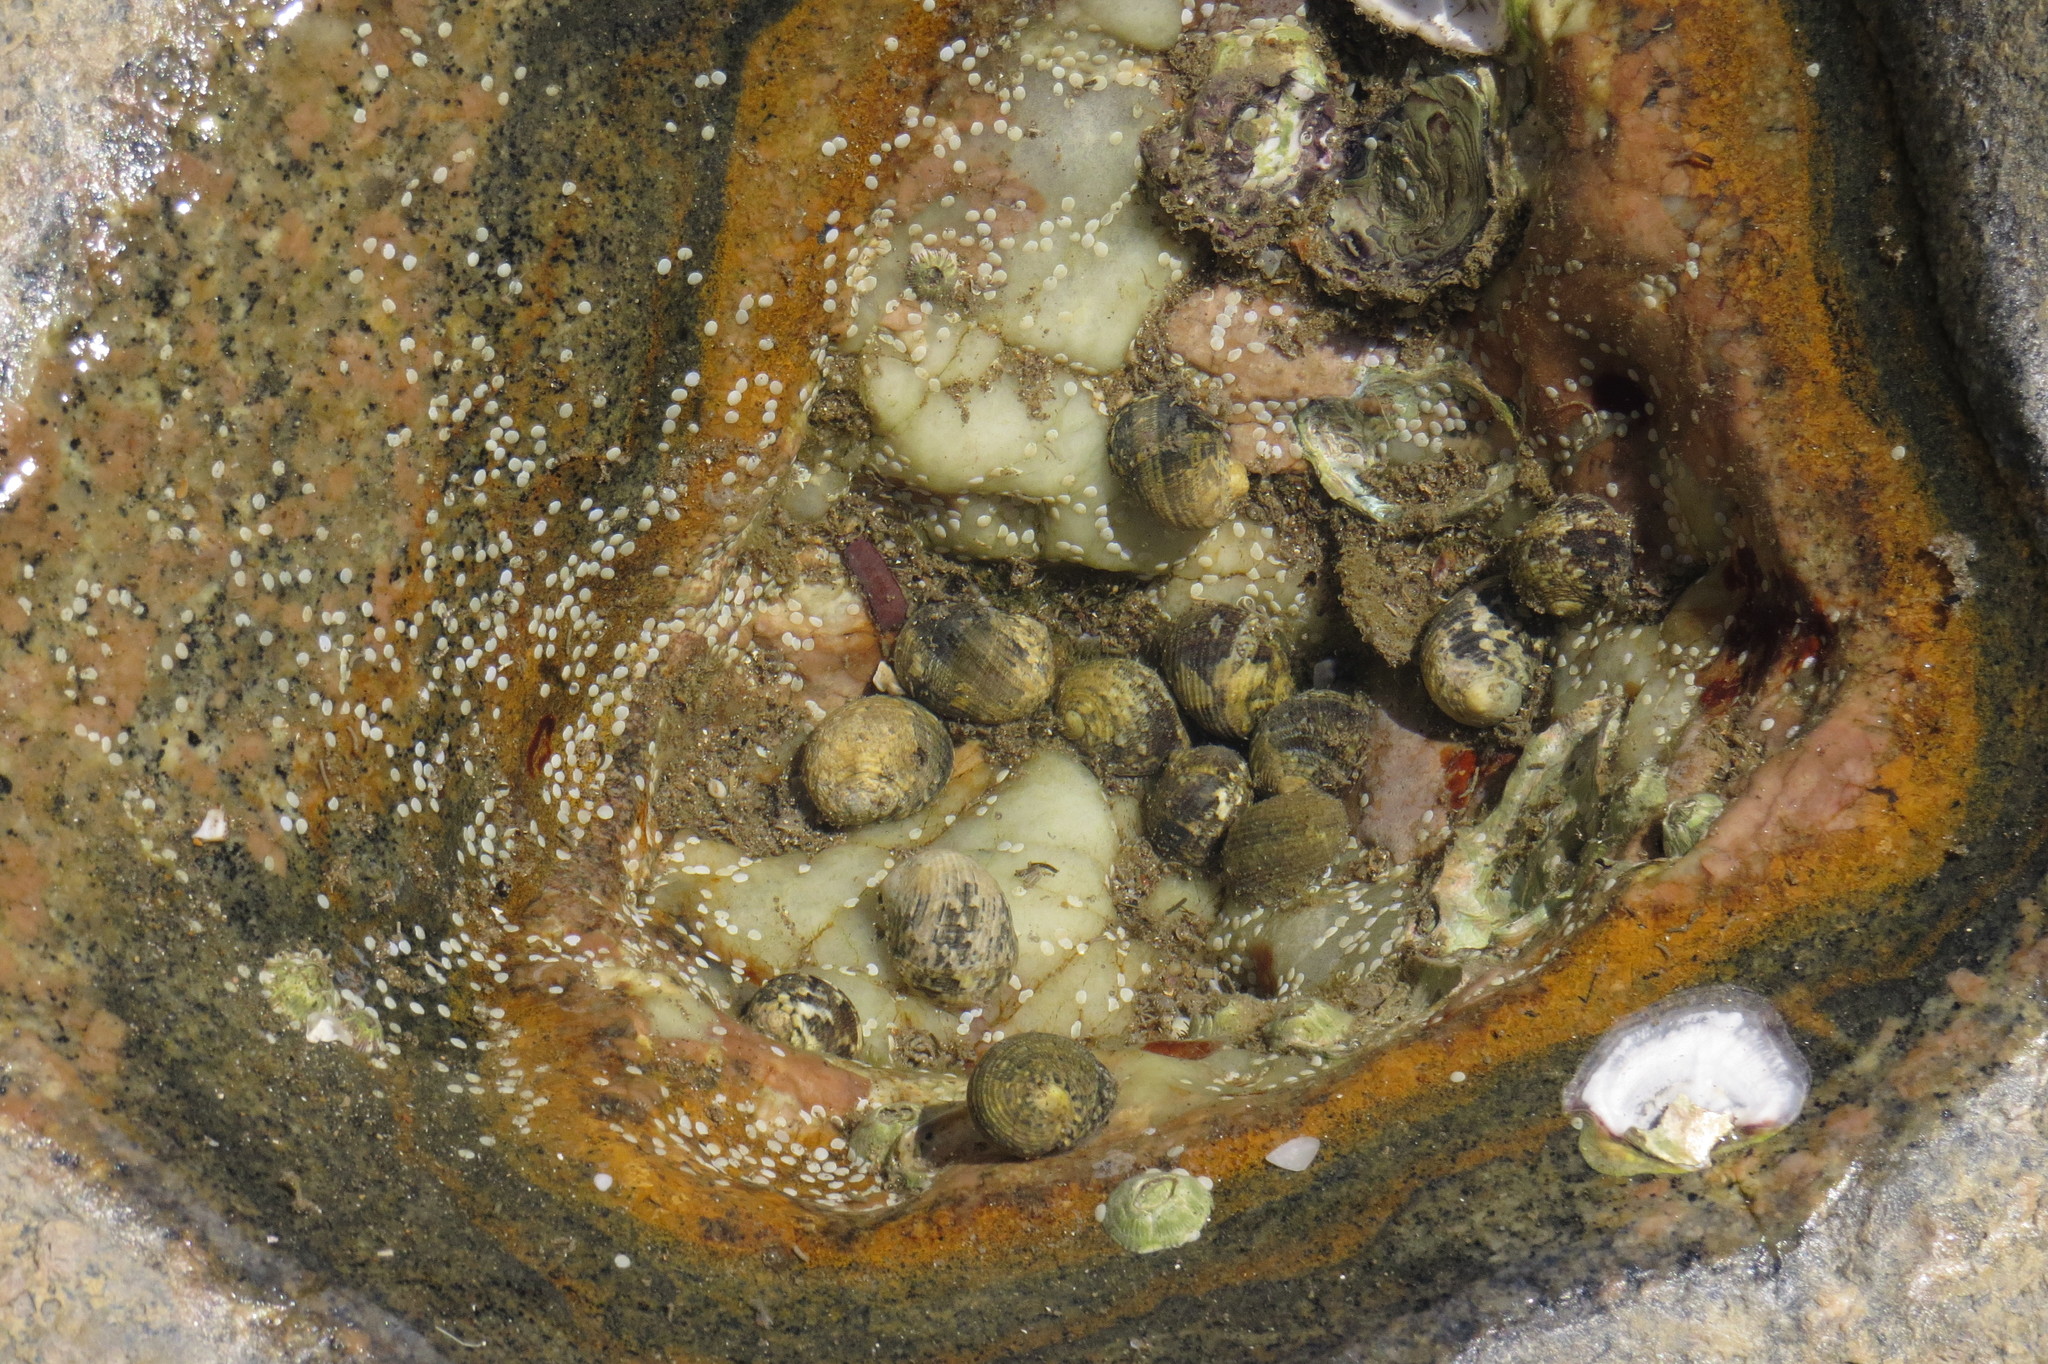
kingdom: Animalia
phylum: Mollusca
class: Gastropoda
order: Cycloneritida
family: Neritidae
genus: Nerita
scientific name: Nerita chamaeleon
